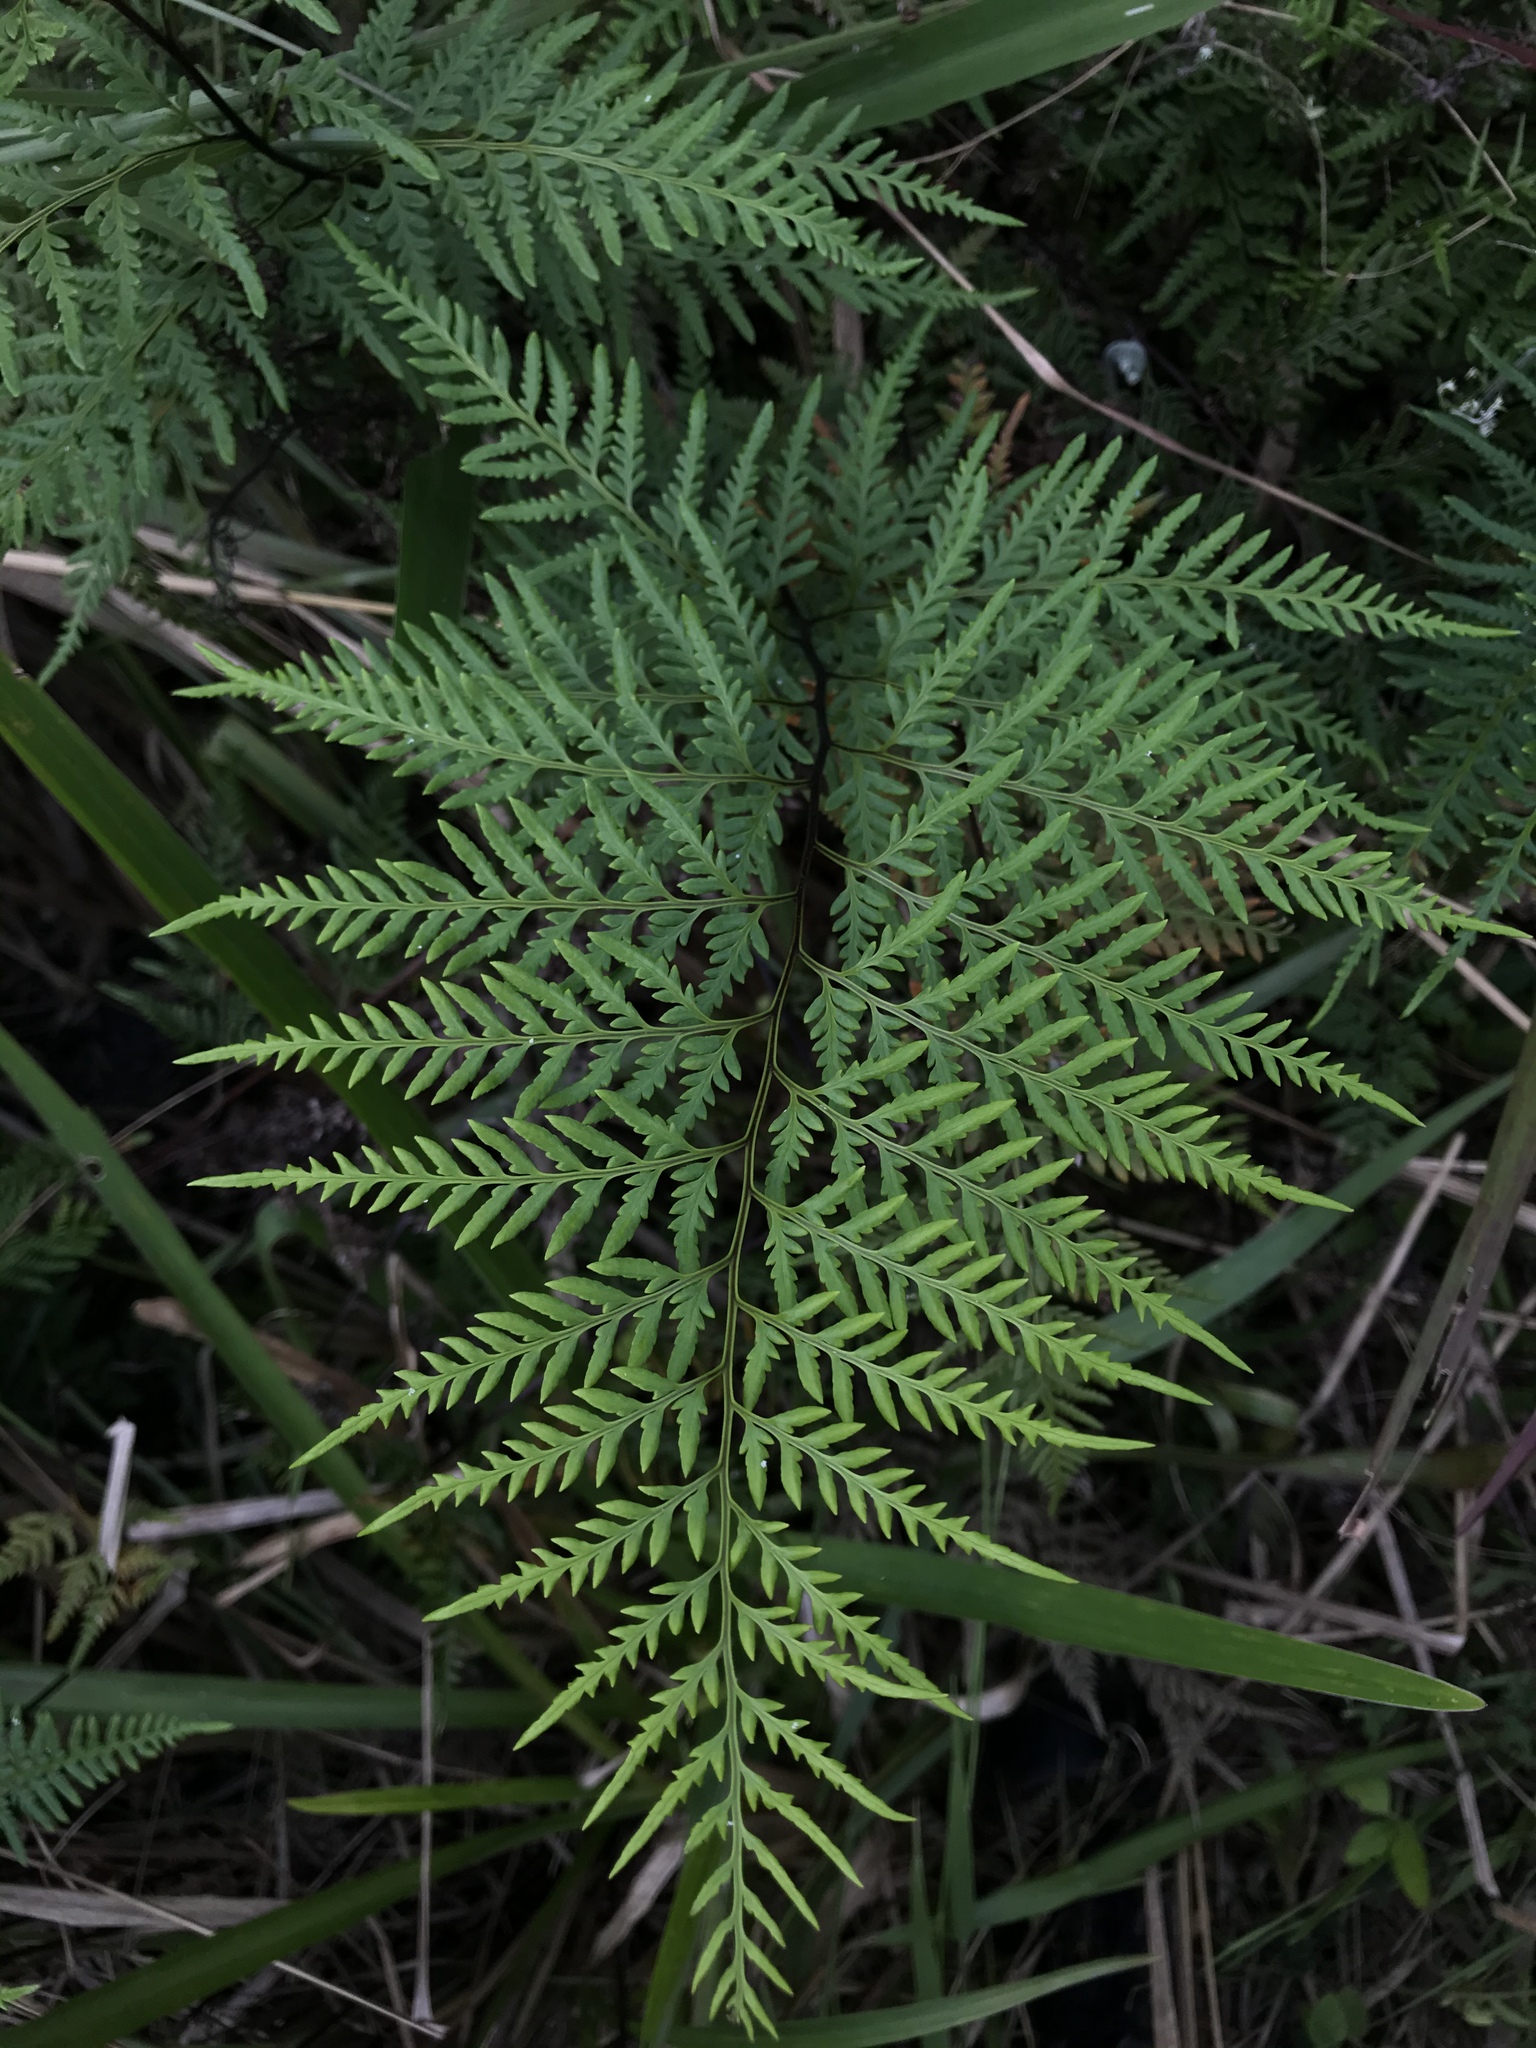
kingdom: Plantae
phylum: Tracheophyta
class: Polypodiopsida
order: Polypodiales
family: Pteridaceae
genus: Pityrogramma
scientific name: Pityrogramma calomelanos
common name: Dixie silverback fern
